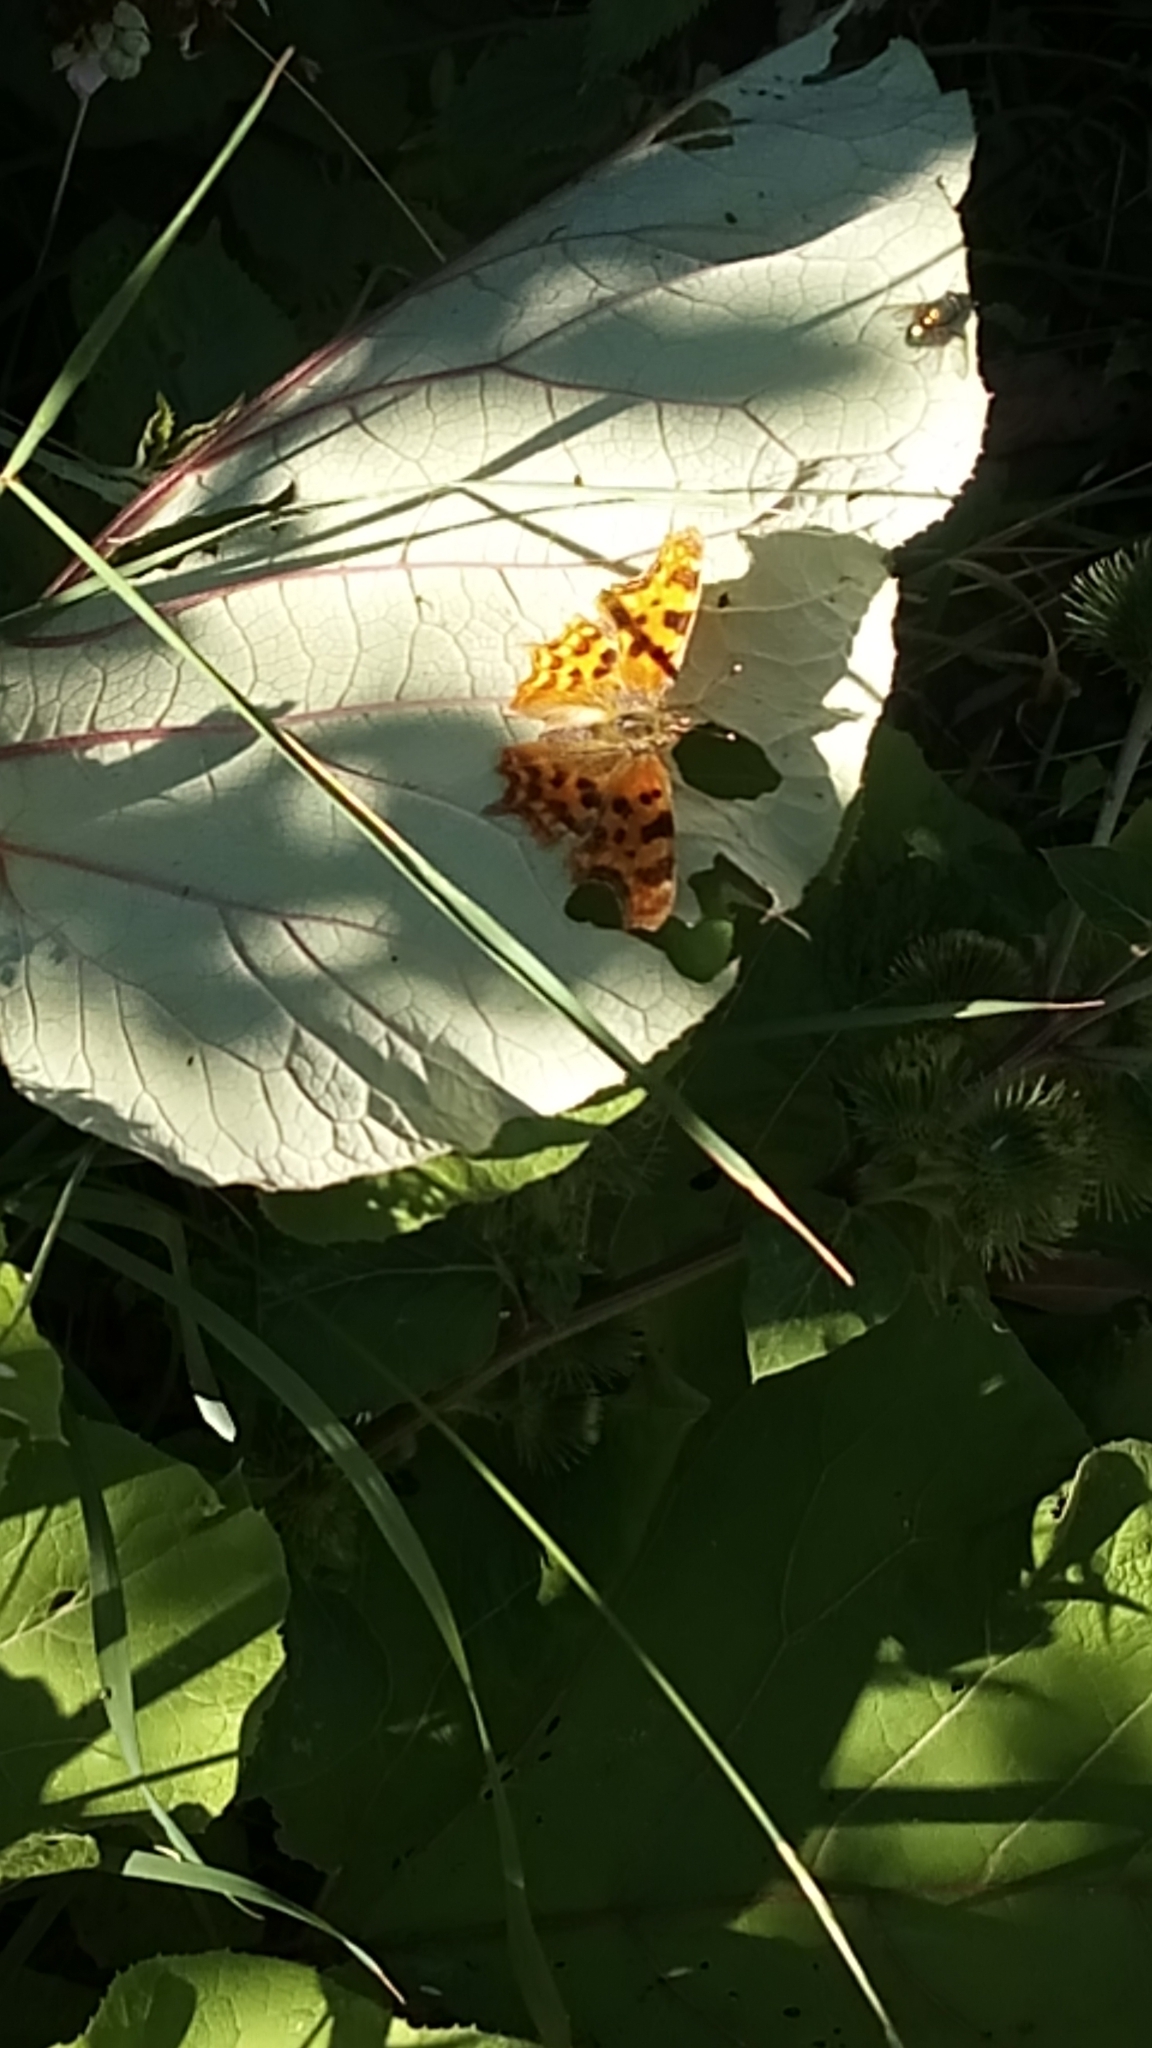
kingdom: Animalia
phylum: Arthropoda
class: Insecta
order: Lepidoptera
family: Nymphalidae
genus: Polygonia
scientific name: Polygonia c-album
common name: Comma
